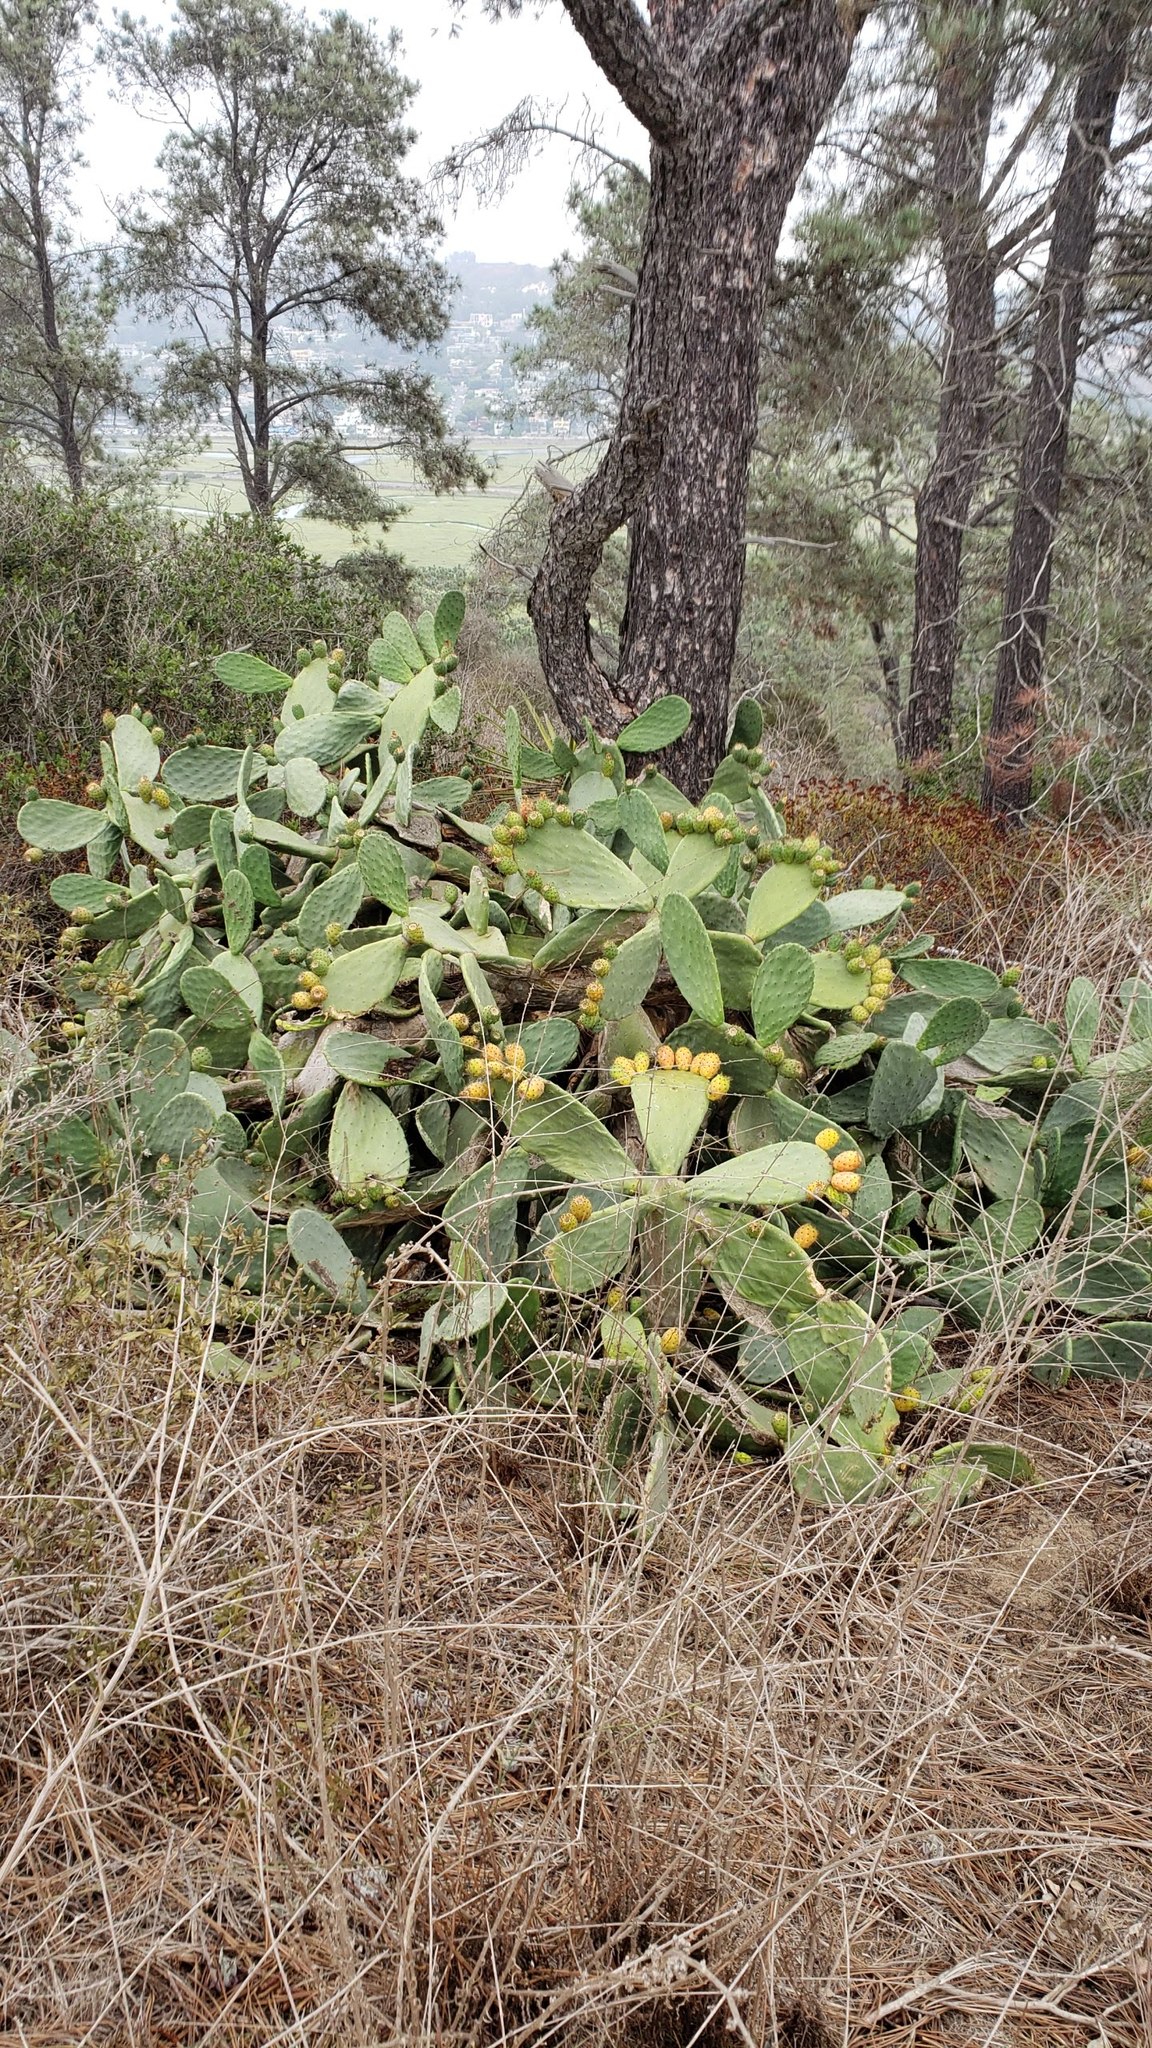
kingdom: Plantae
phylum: Tracheophyta
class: Magnoliopsida
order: Caryophyllales
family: Cactaceae
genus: Opuntia
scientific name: Opuntia ficus-indica
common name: Barbary fig
